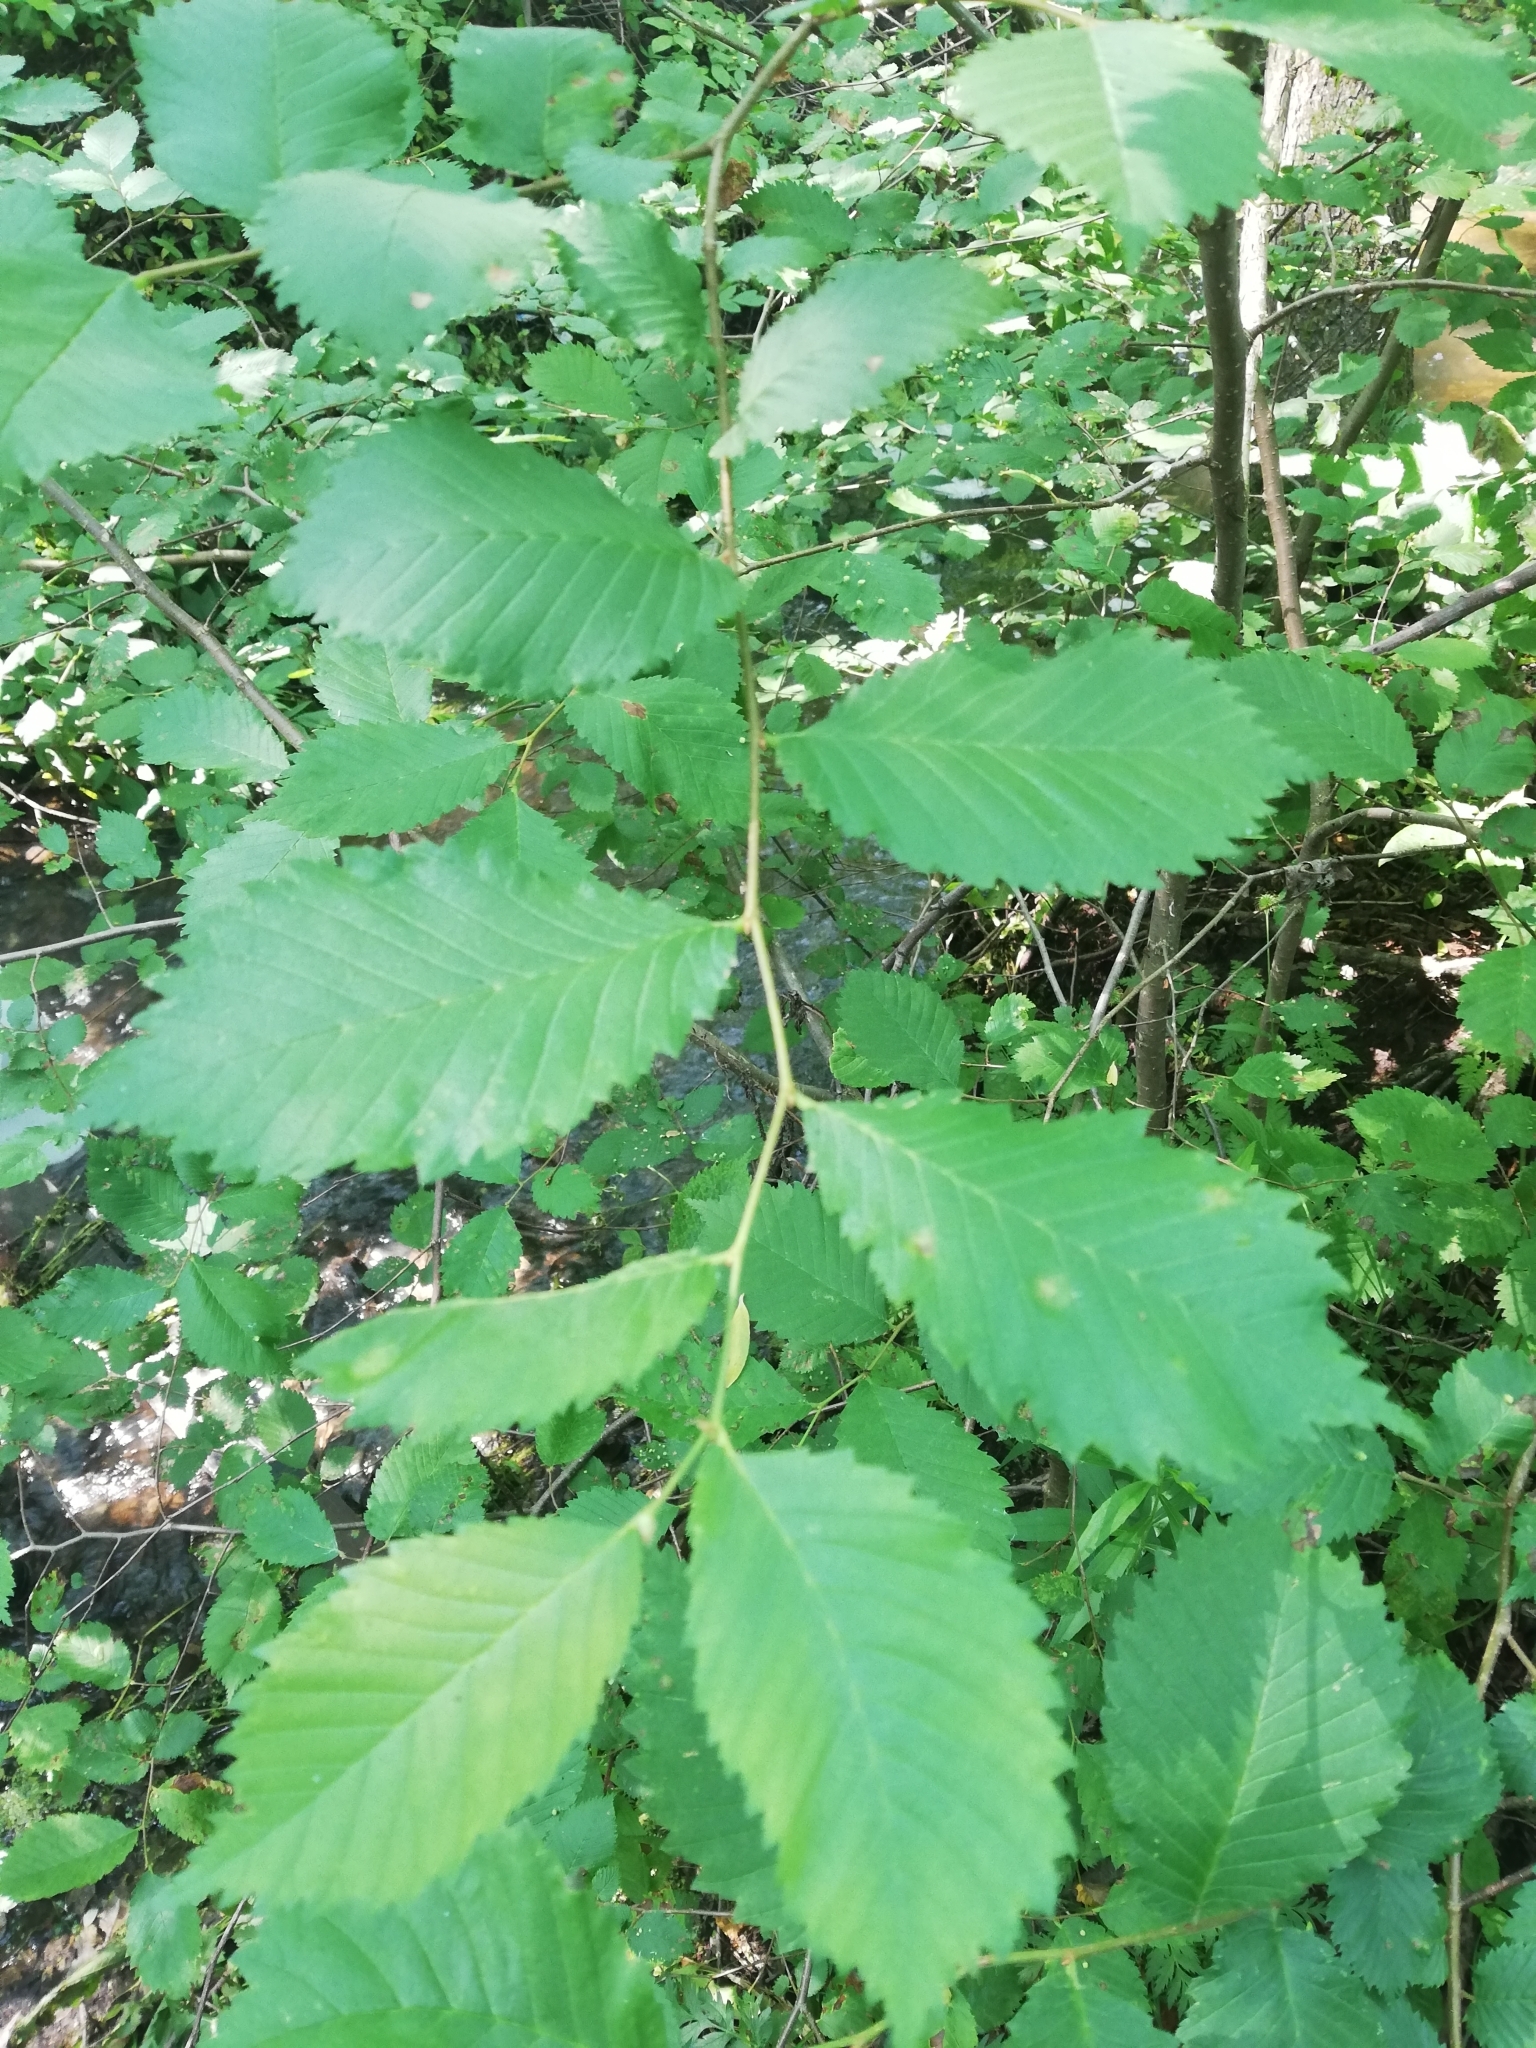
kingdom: Plantae
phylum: Tracheophyta
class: Magnoliopsida
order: Rosales
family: Ulmaceae
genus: Ulmus
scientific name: Ulmus glabra
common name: Wych elm
